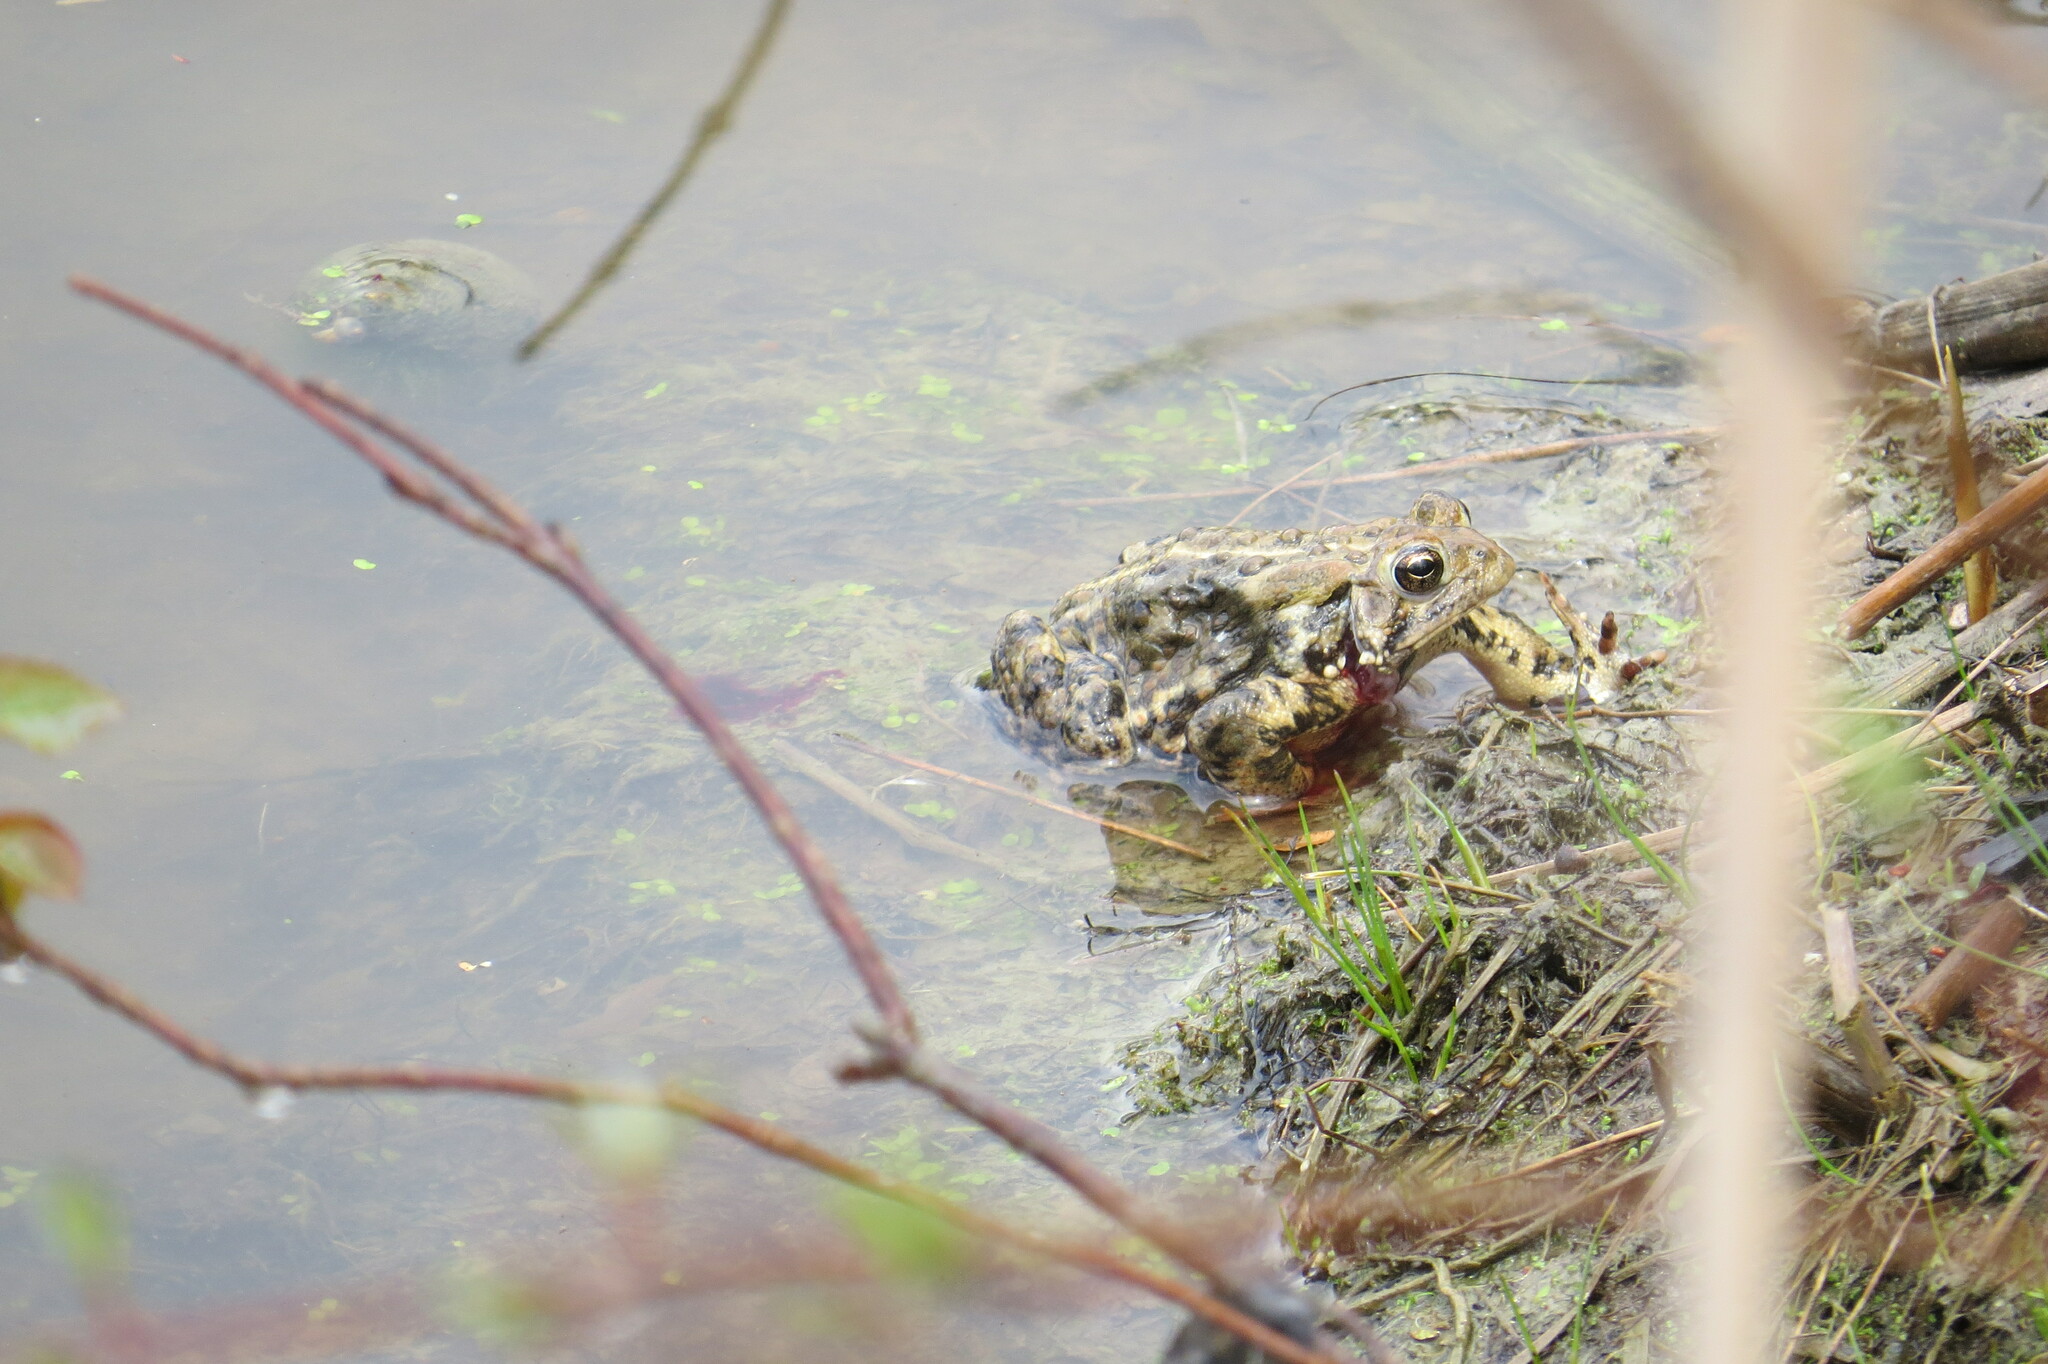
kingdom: Animalia
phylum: Chordata
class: Amphibia
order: Anura
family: Bufonidae
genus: Anaxyrus
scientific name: Anaxyrus americanus
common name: American toad
